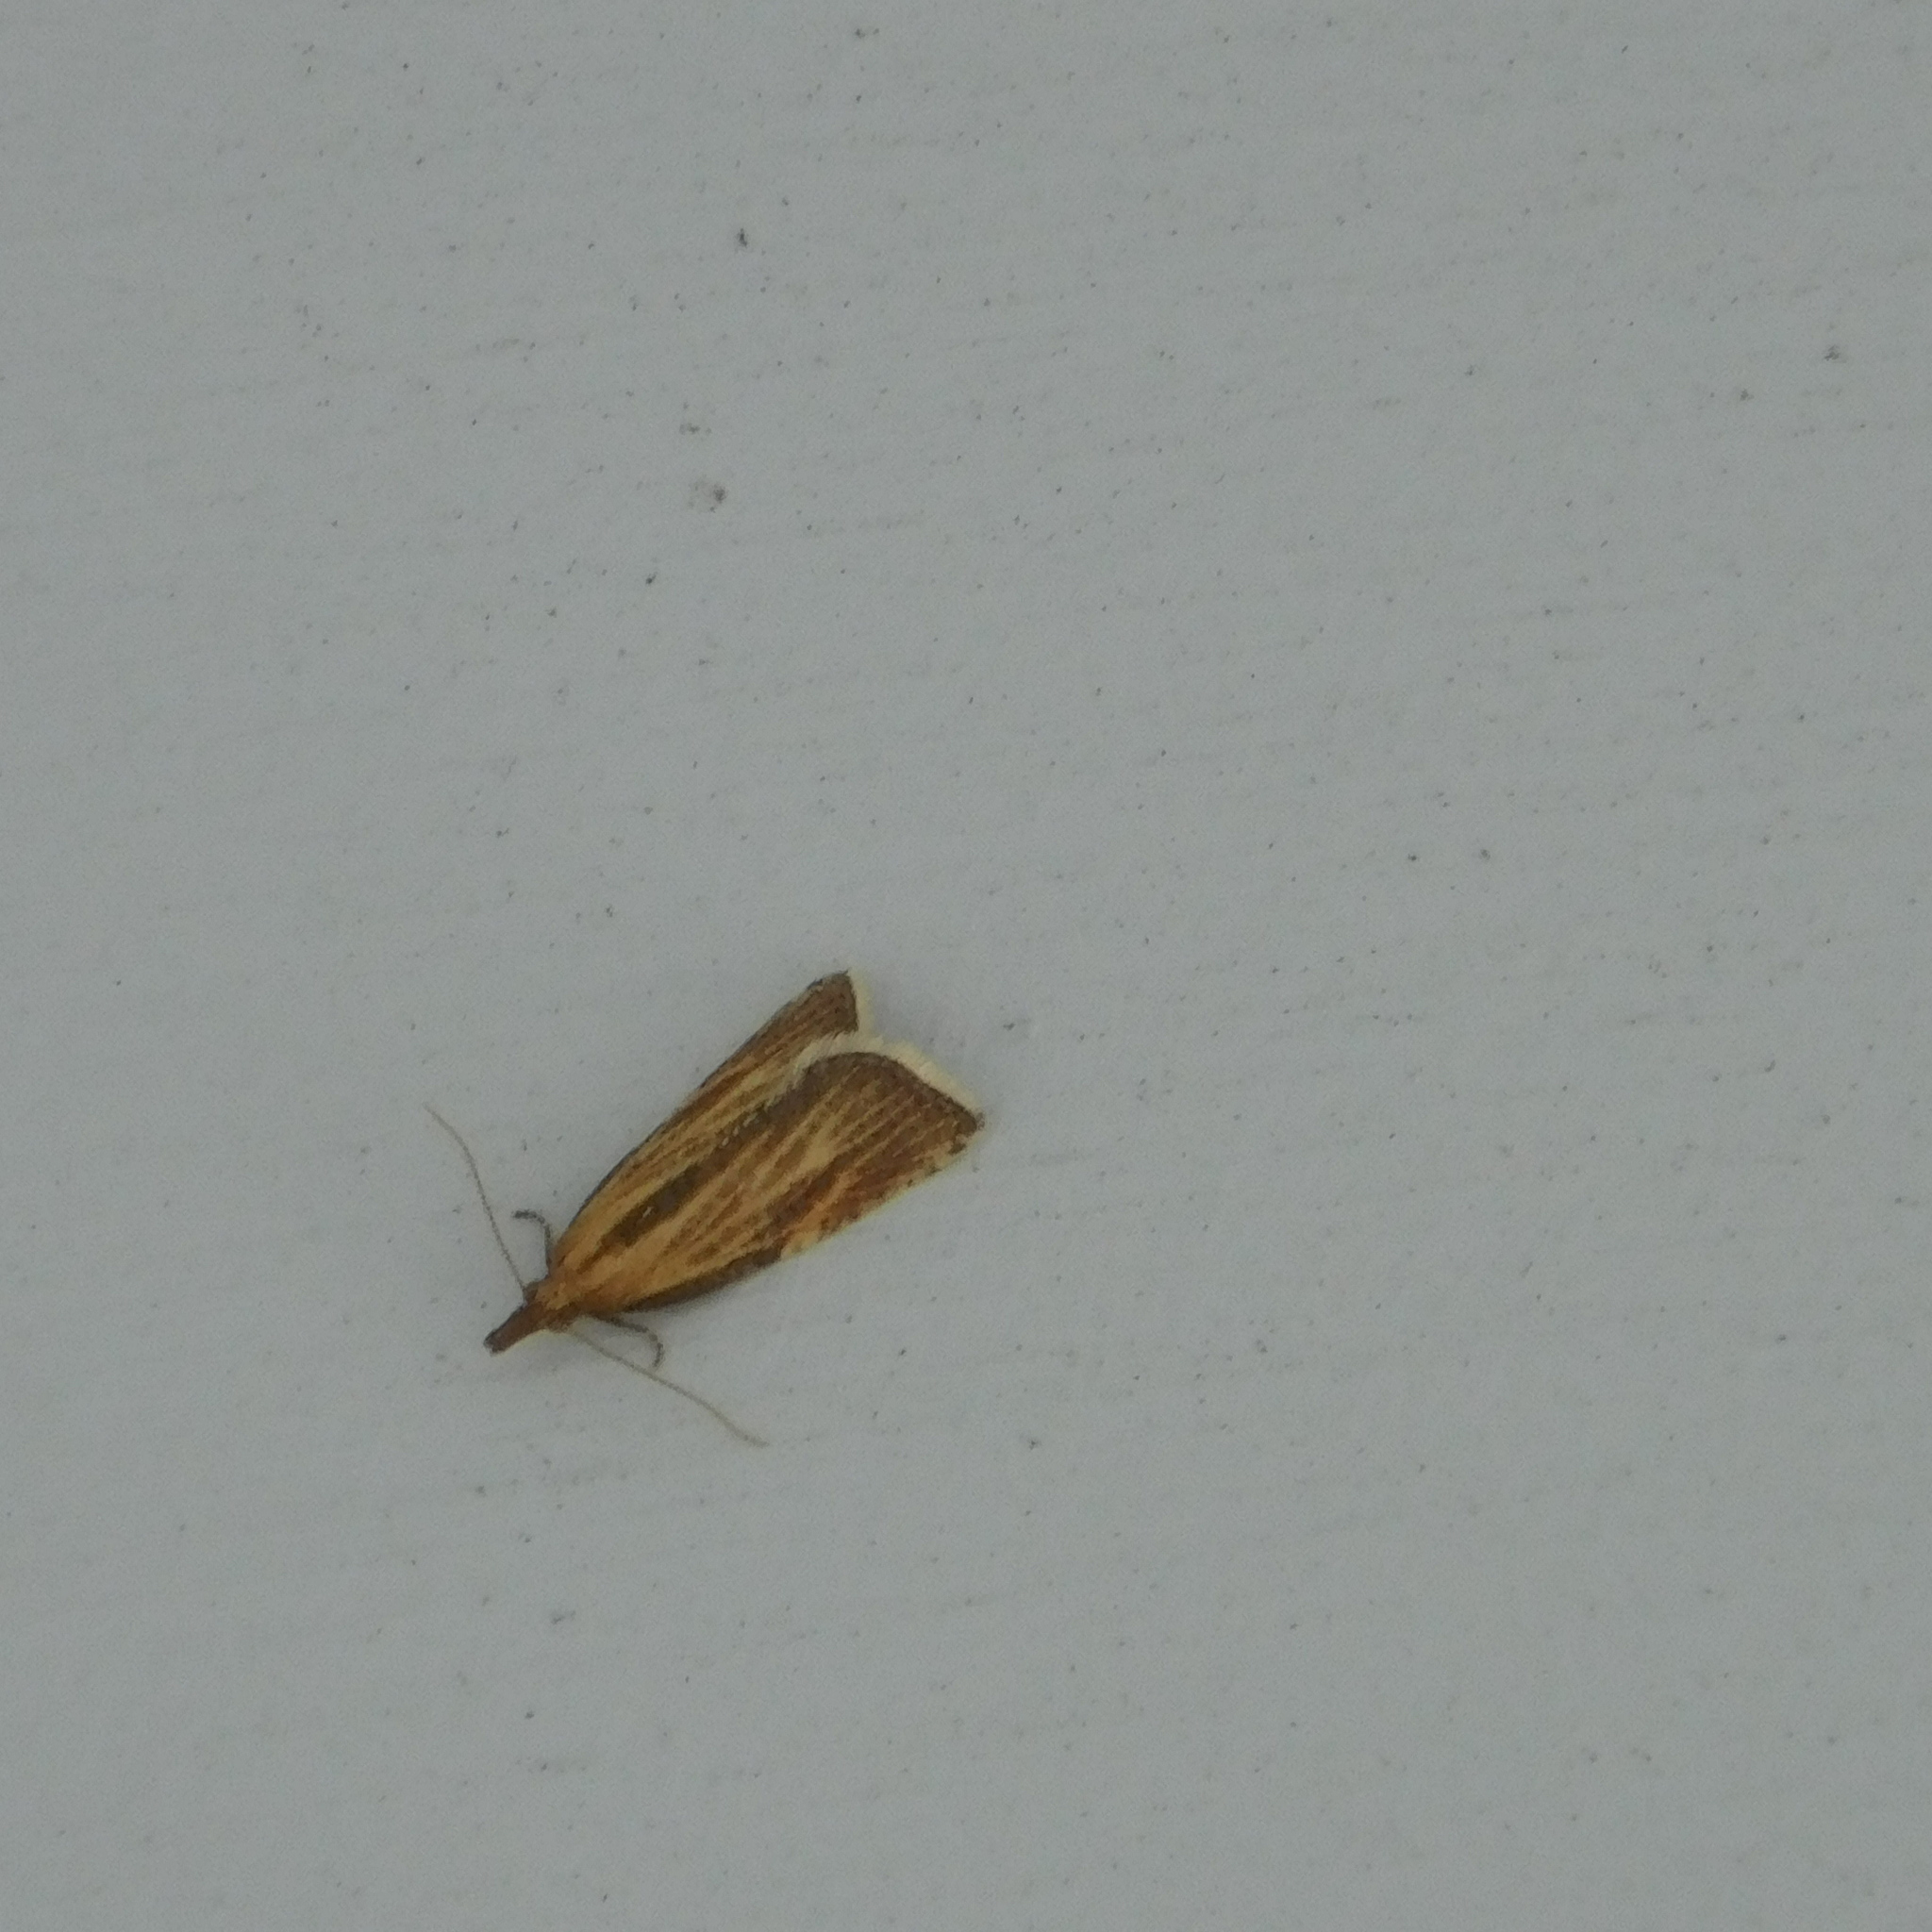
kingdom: Animalia
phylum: Arthropoda
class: Insecta
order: Lepidoptera
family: Tortricidae
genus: Catamacta
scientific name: Catamacta lotinana
